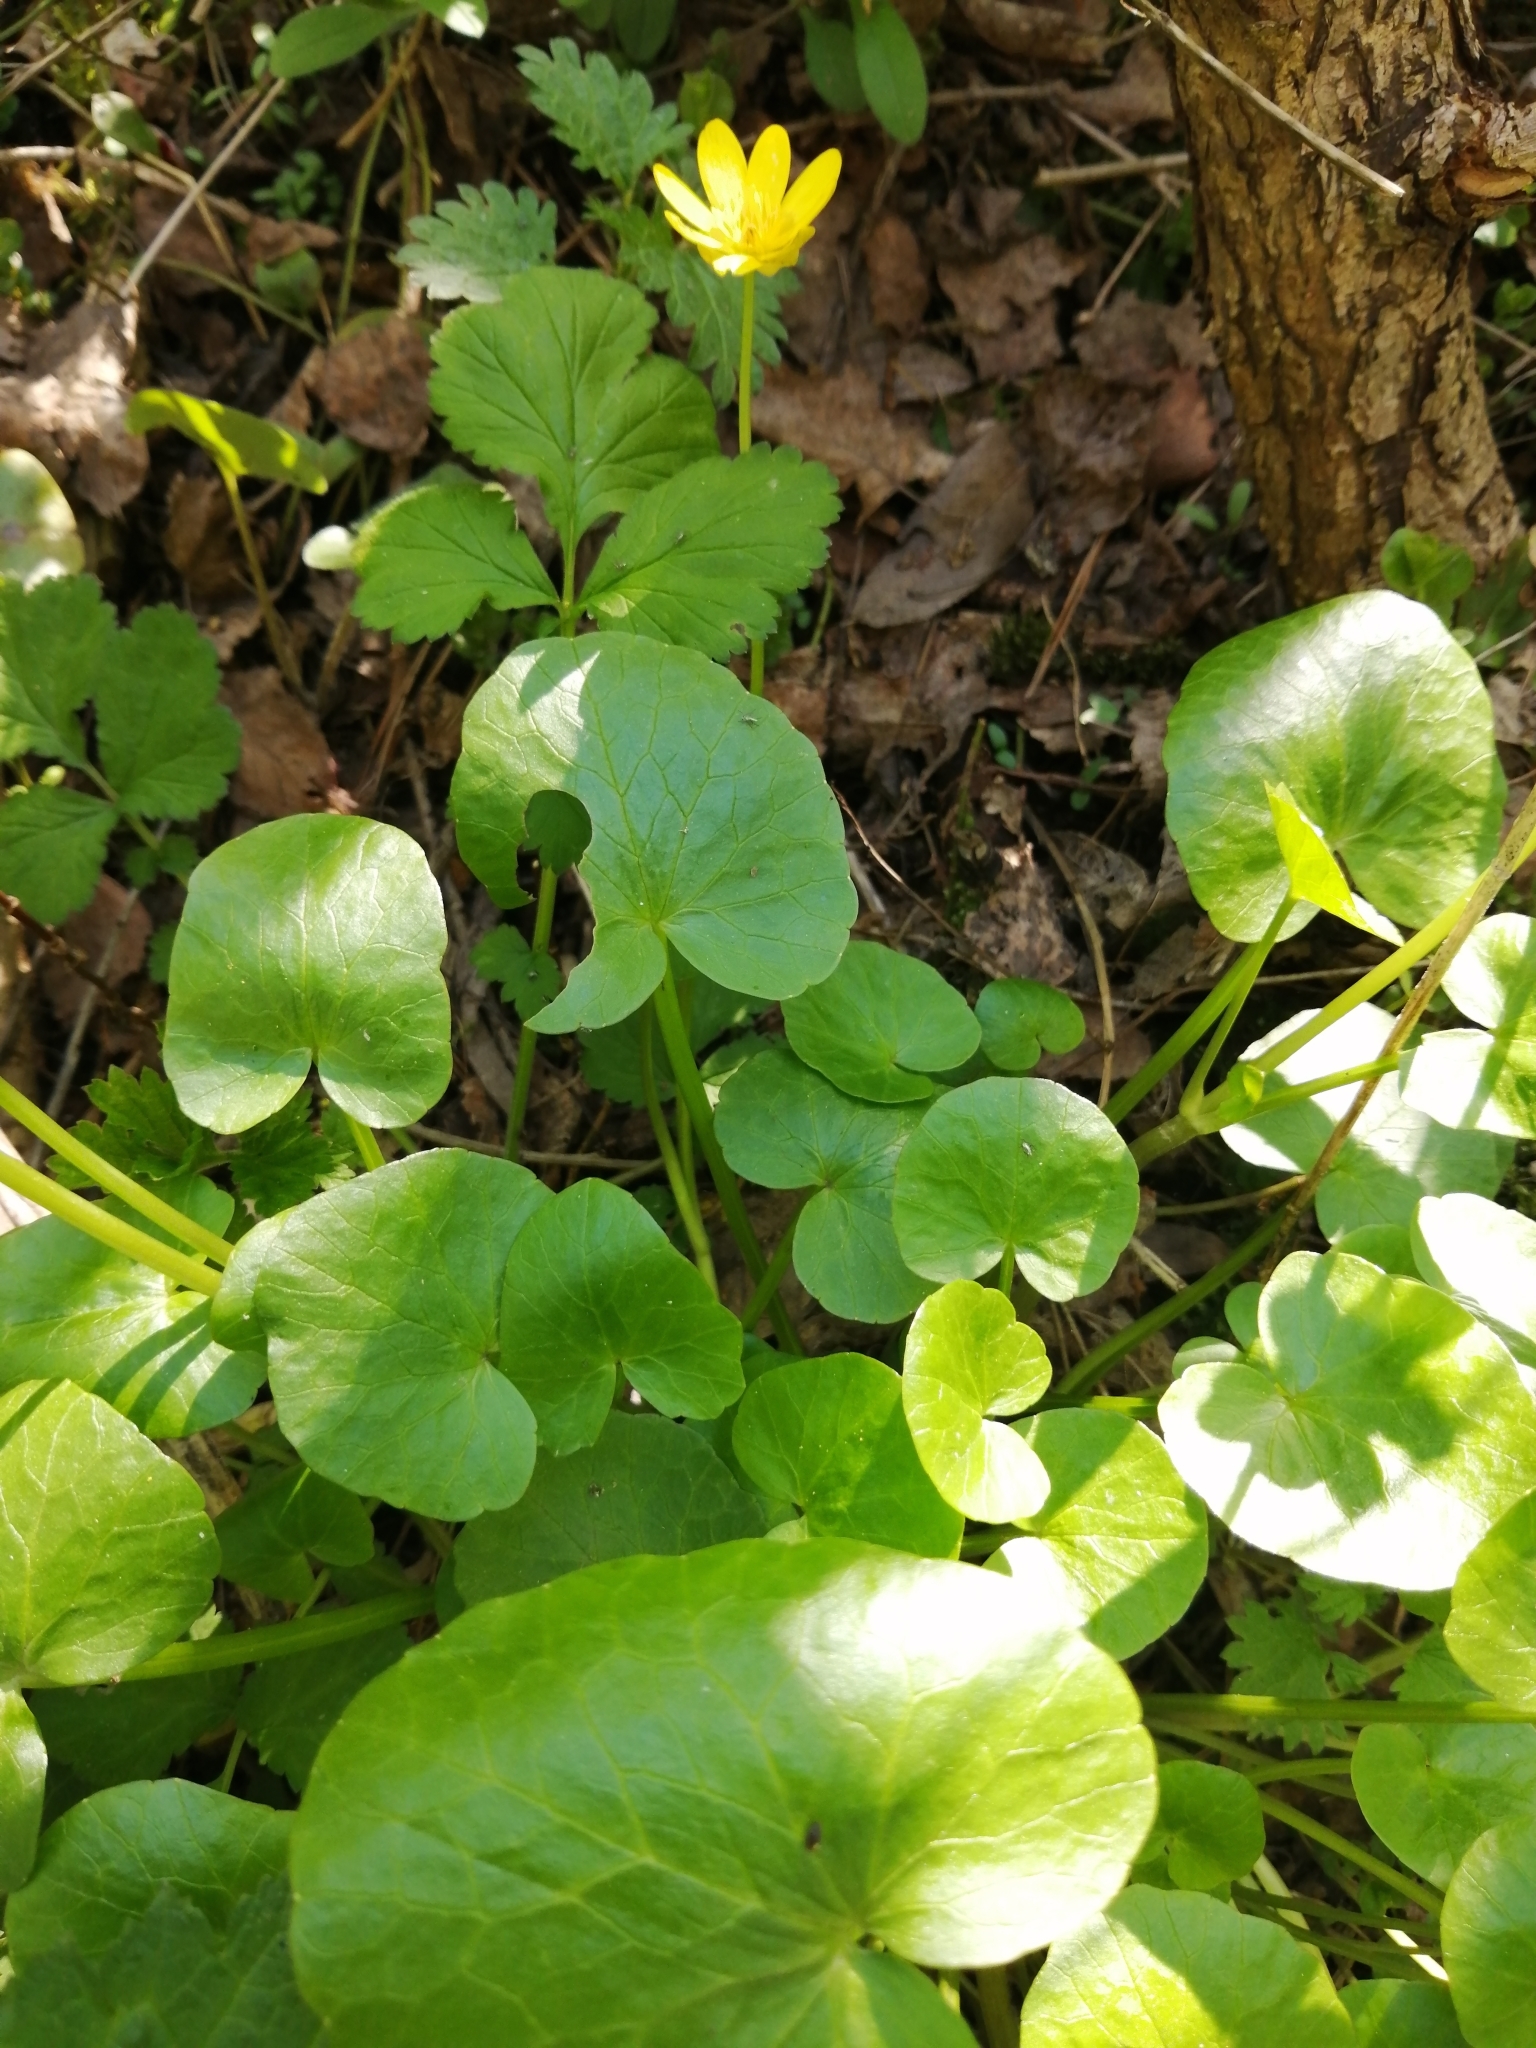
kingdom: Plantae
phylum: Tracheophyta
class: Magnoliopsida
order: Ranunculales
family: Ranunculaceae
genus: Ficaria
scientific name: Ficaria verna
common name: Lesser celandine
